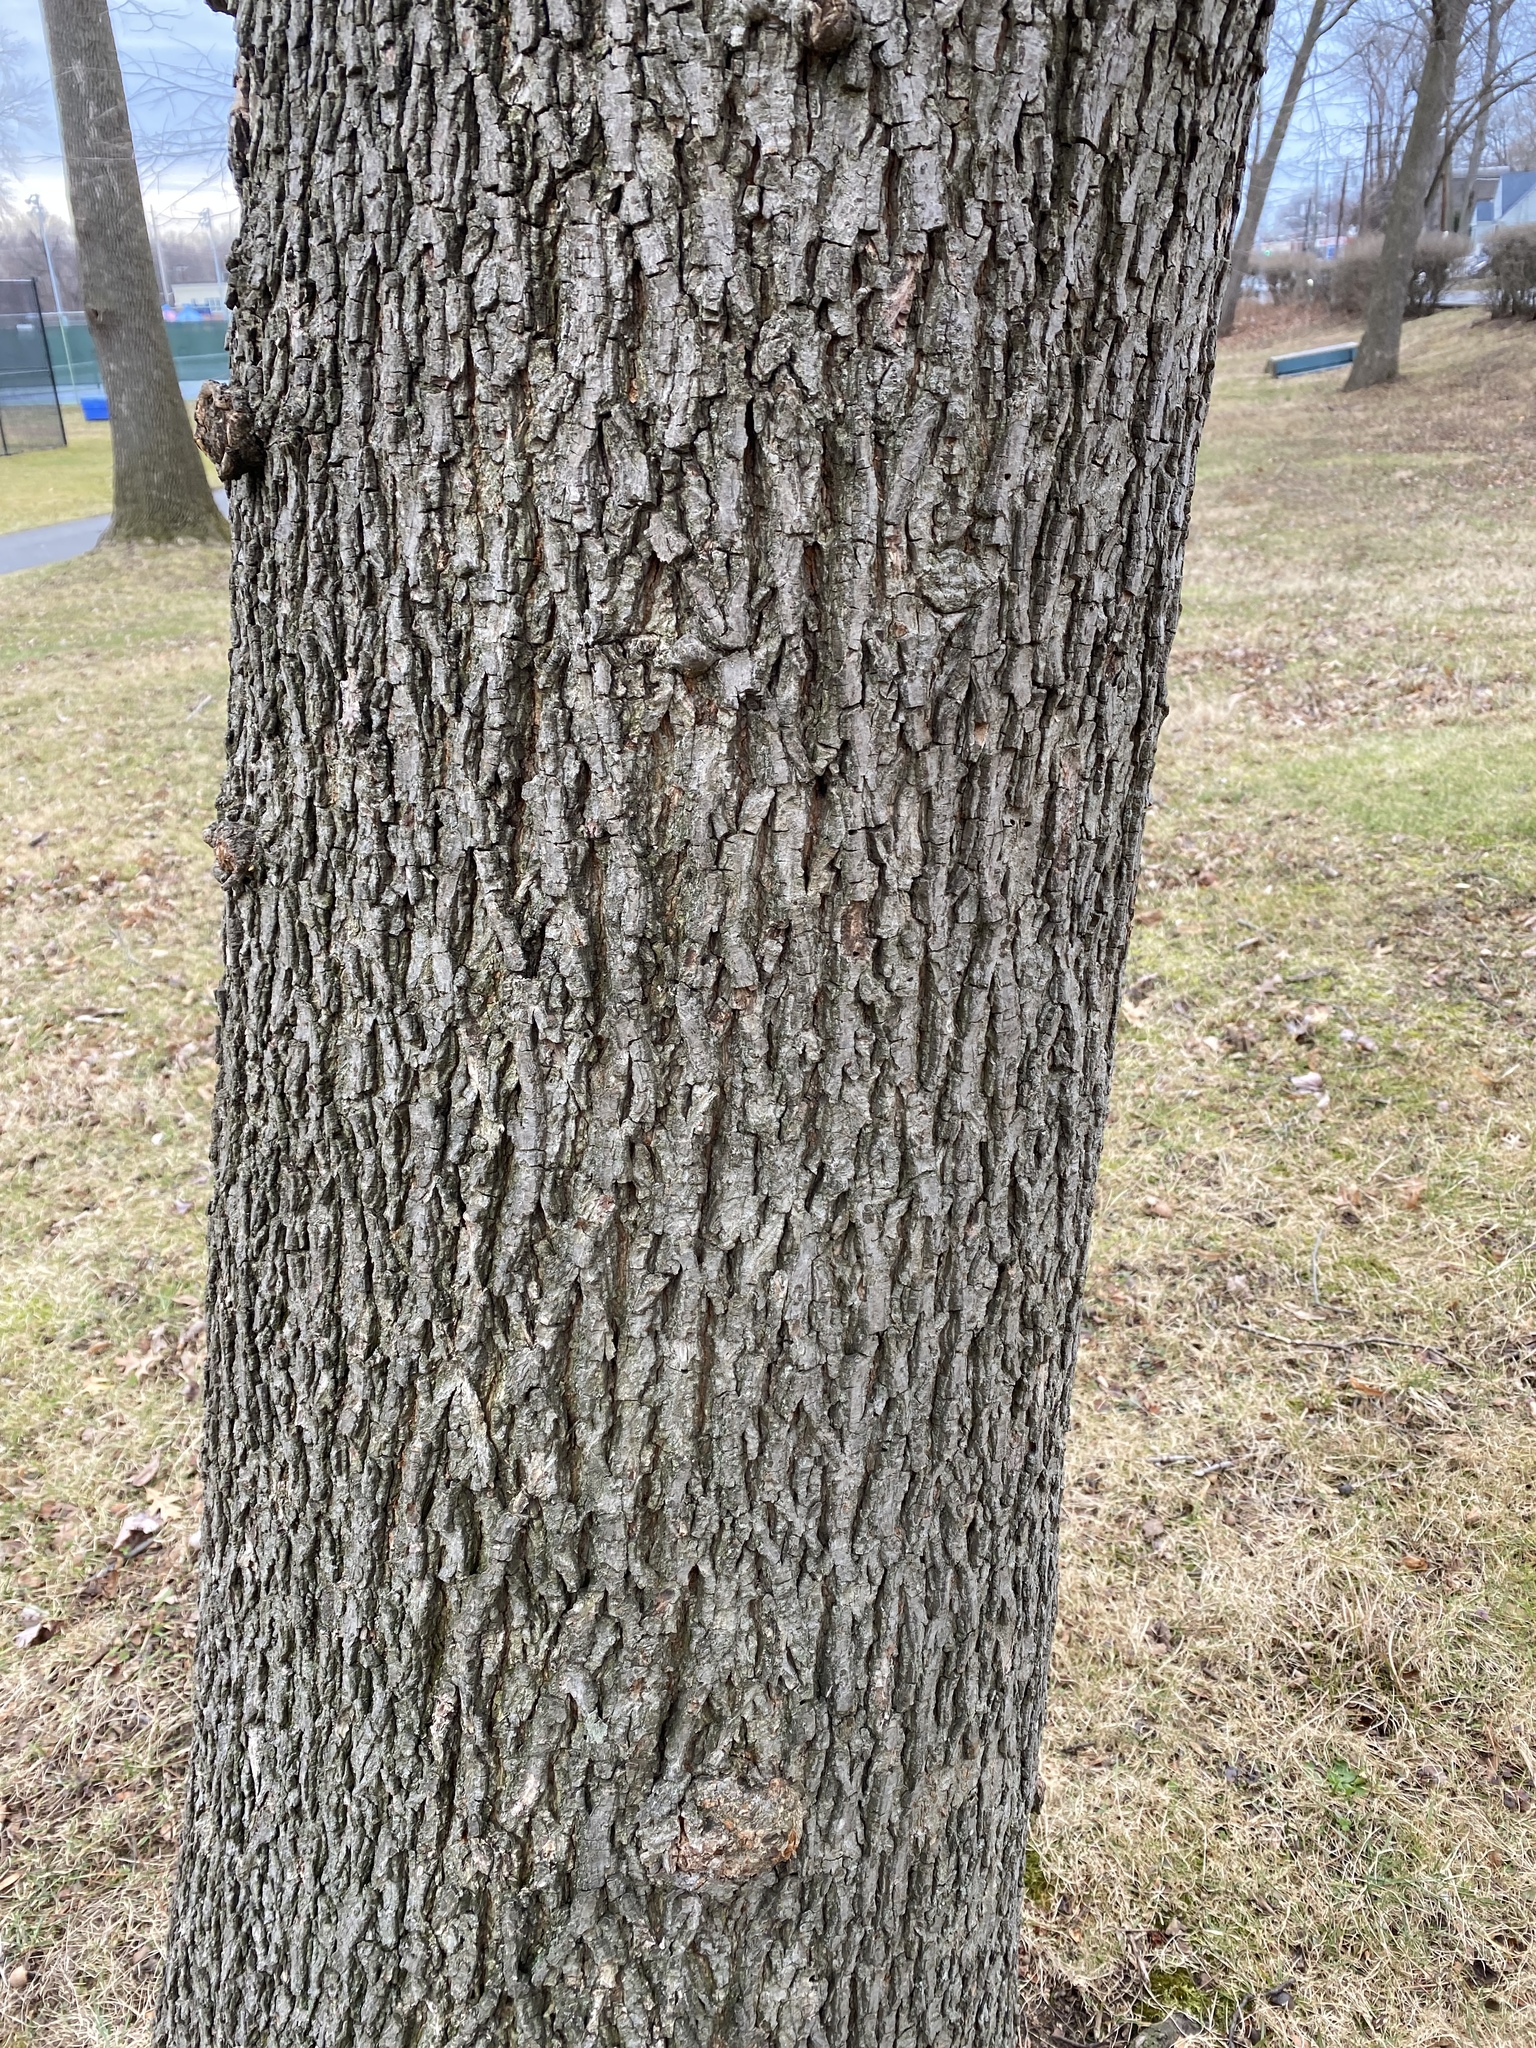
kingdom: Plantae
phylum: Tracheophyta
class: Magnoliopsida
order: Fagales
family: Juglandaceae
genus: Carya
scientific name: Carya cordiformis
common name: Bitternut hickory
